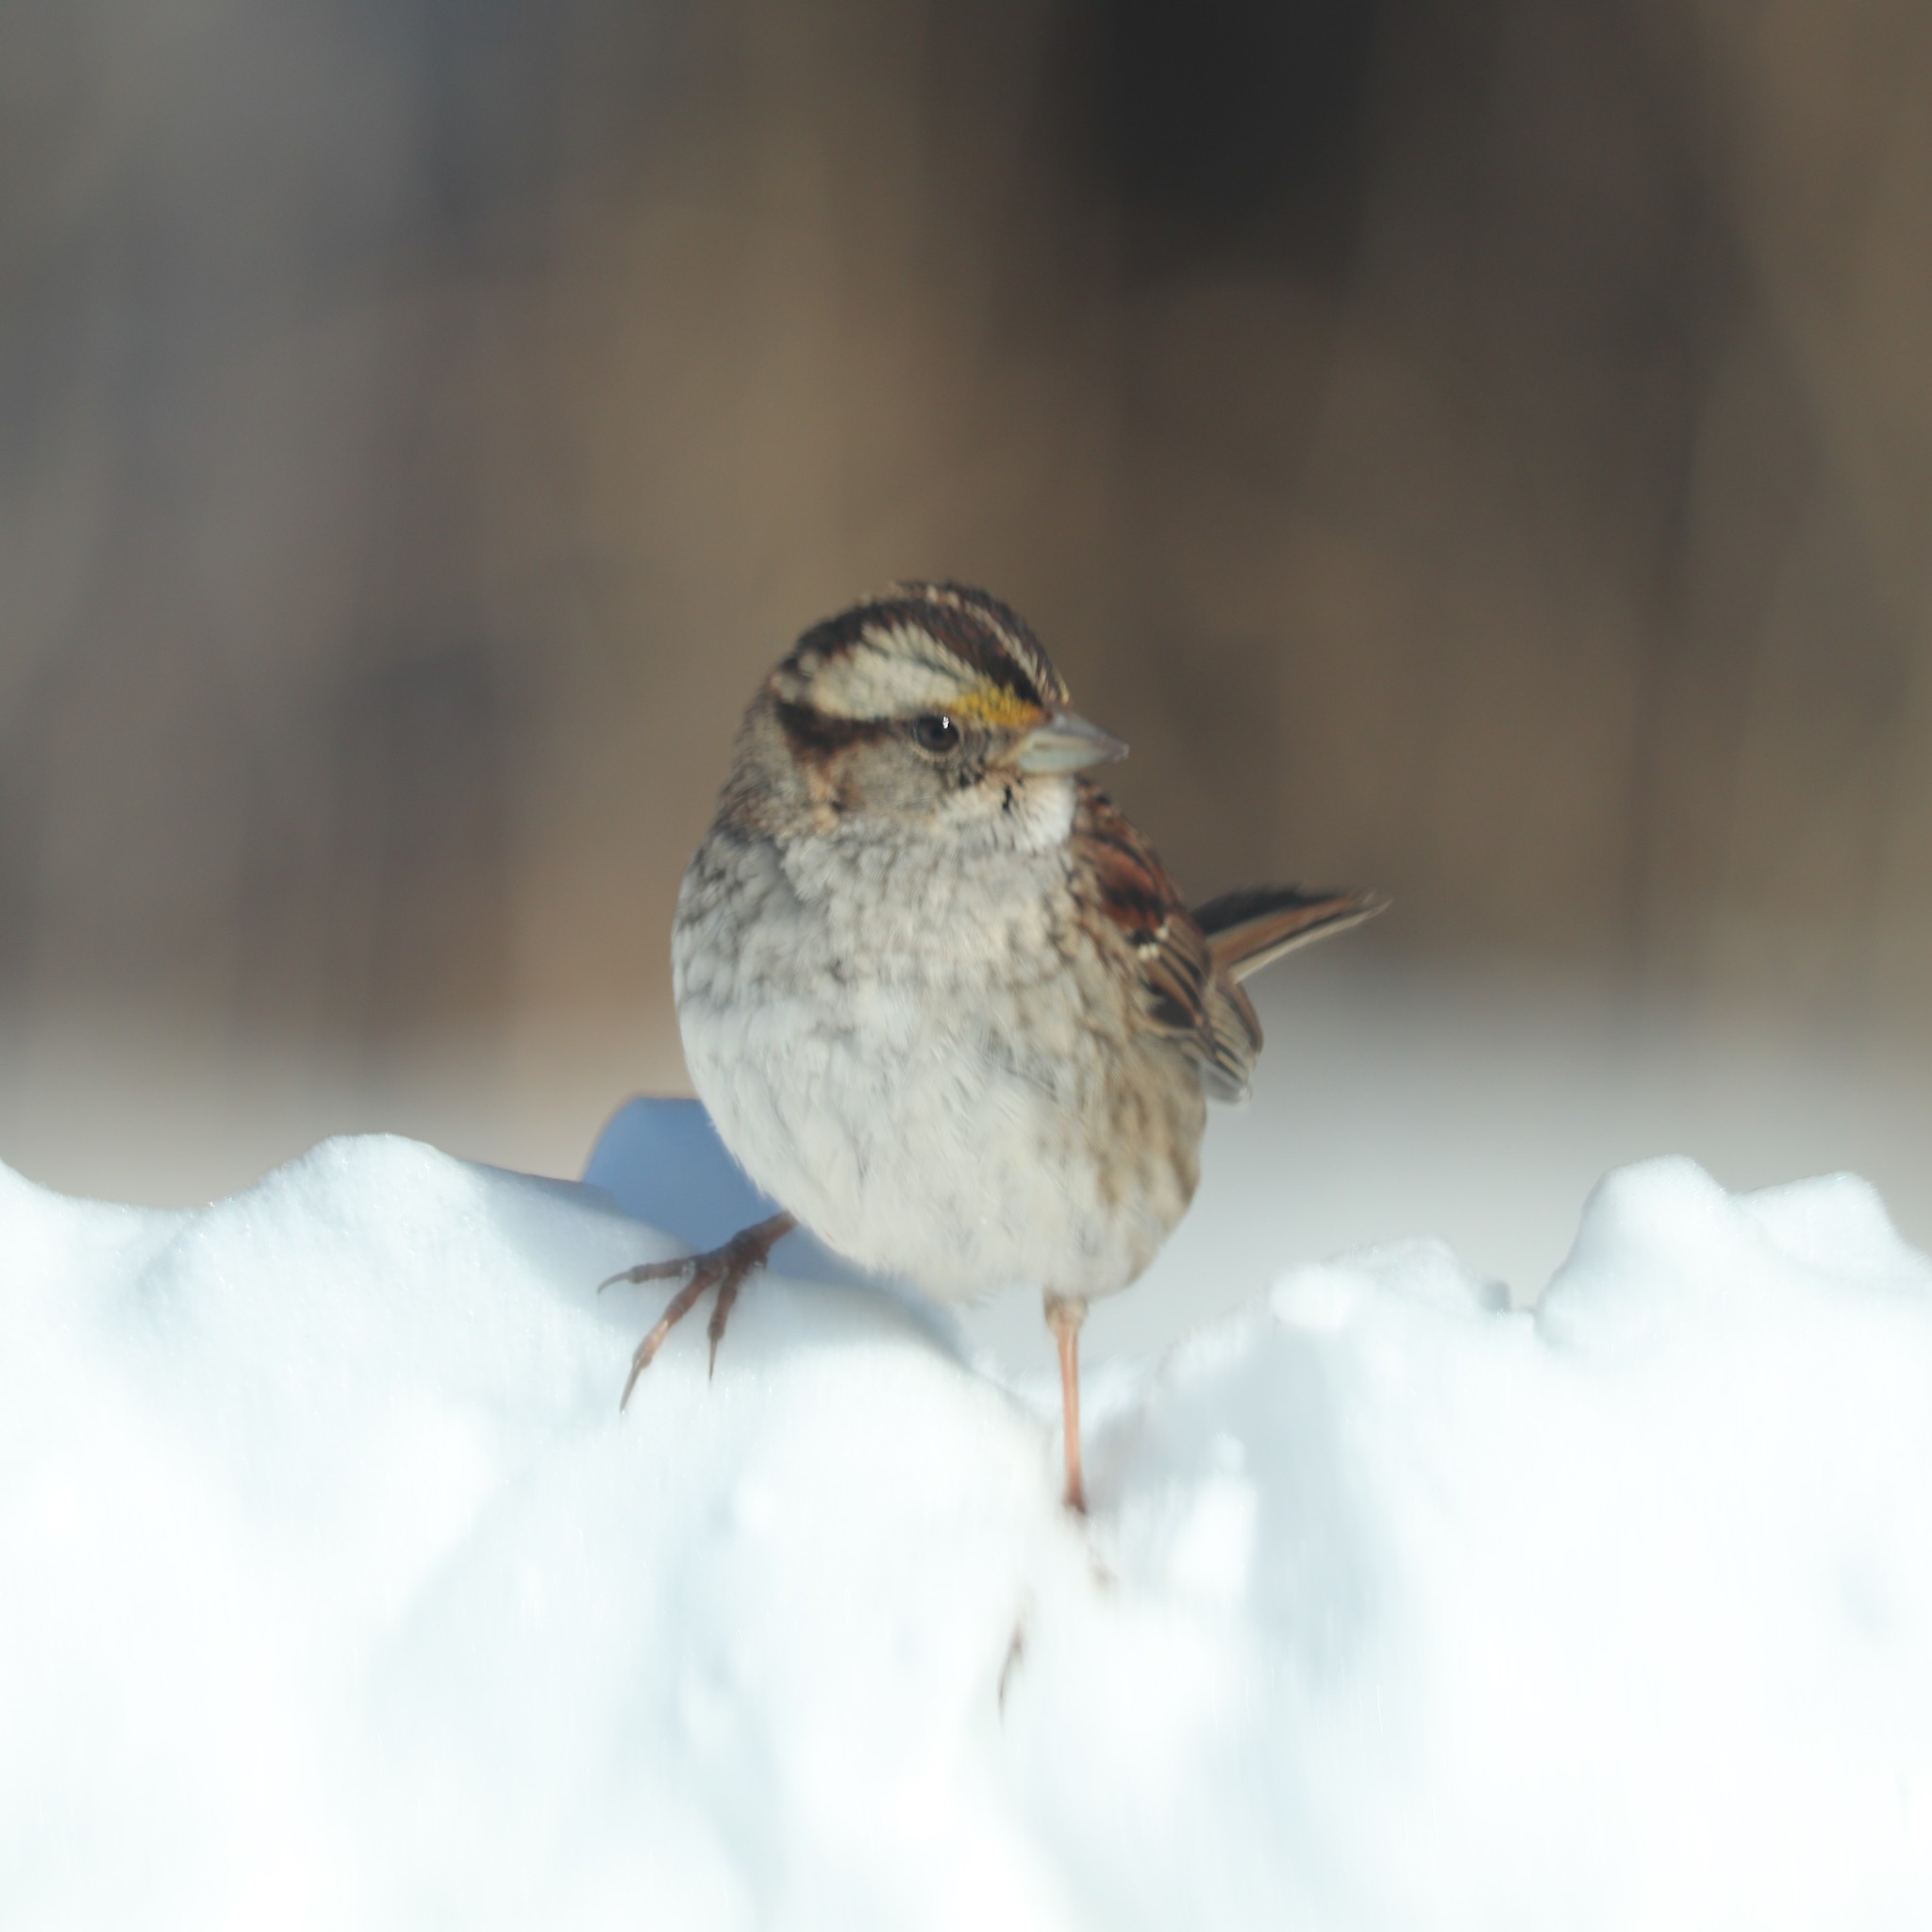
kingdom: Animalia
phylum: Chordata
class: Aves
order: Passeriformes
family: Passerellidae
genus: Zonotrichia
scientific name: Zonotrichia albicollis
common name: White-throated sparrow
